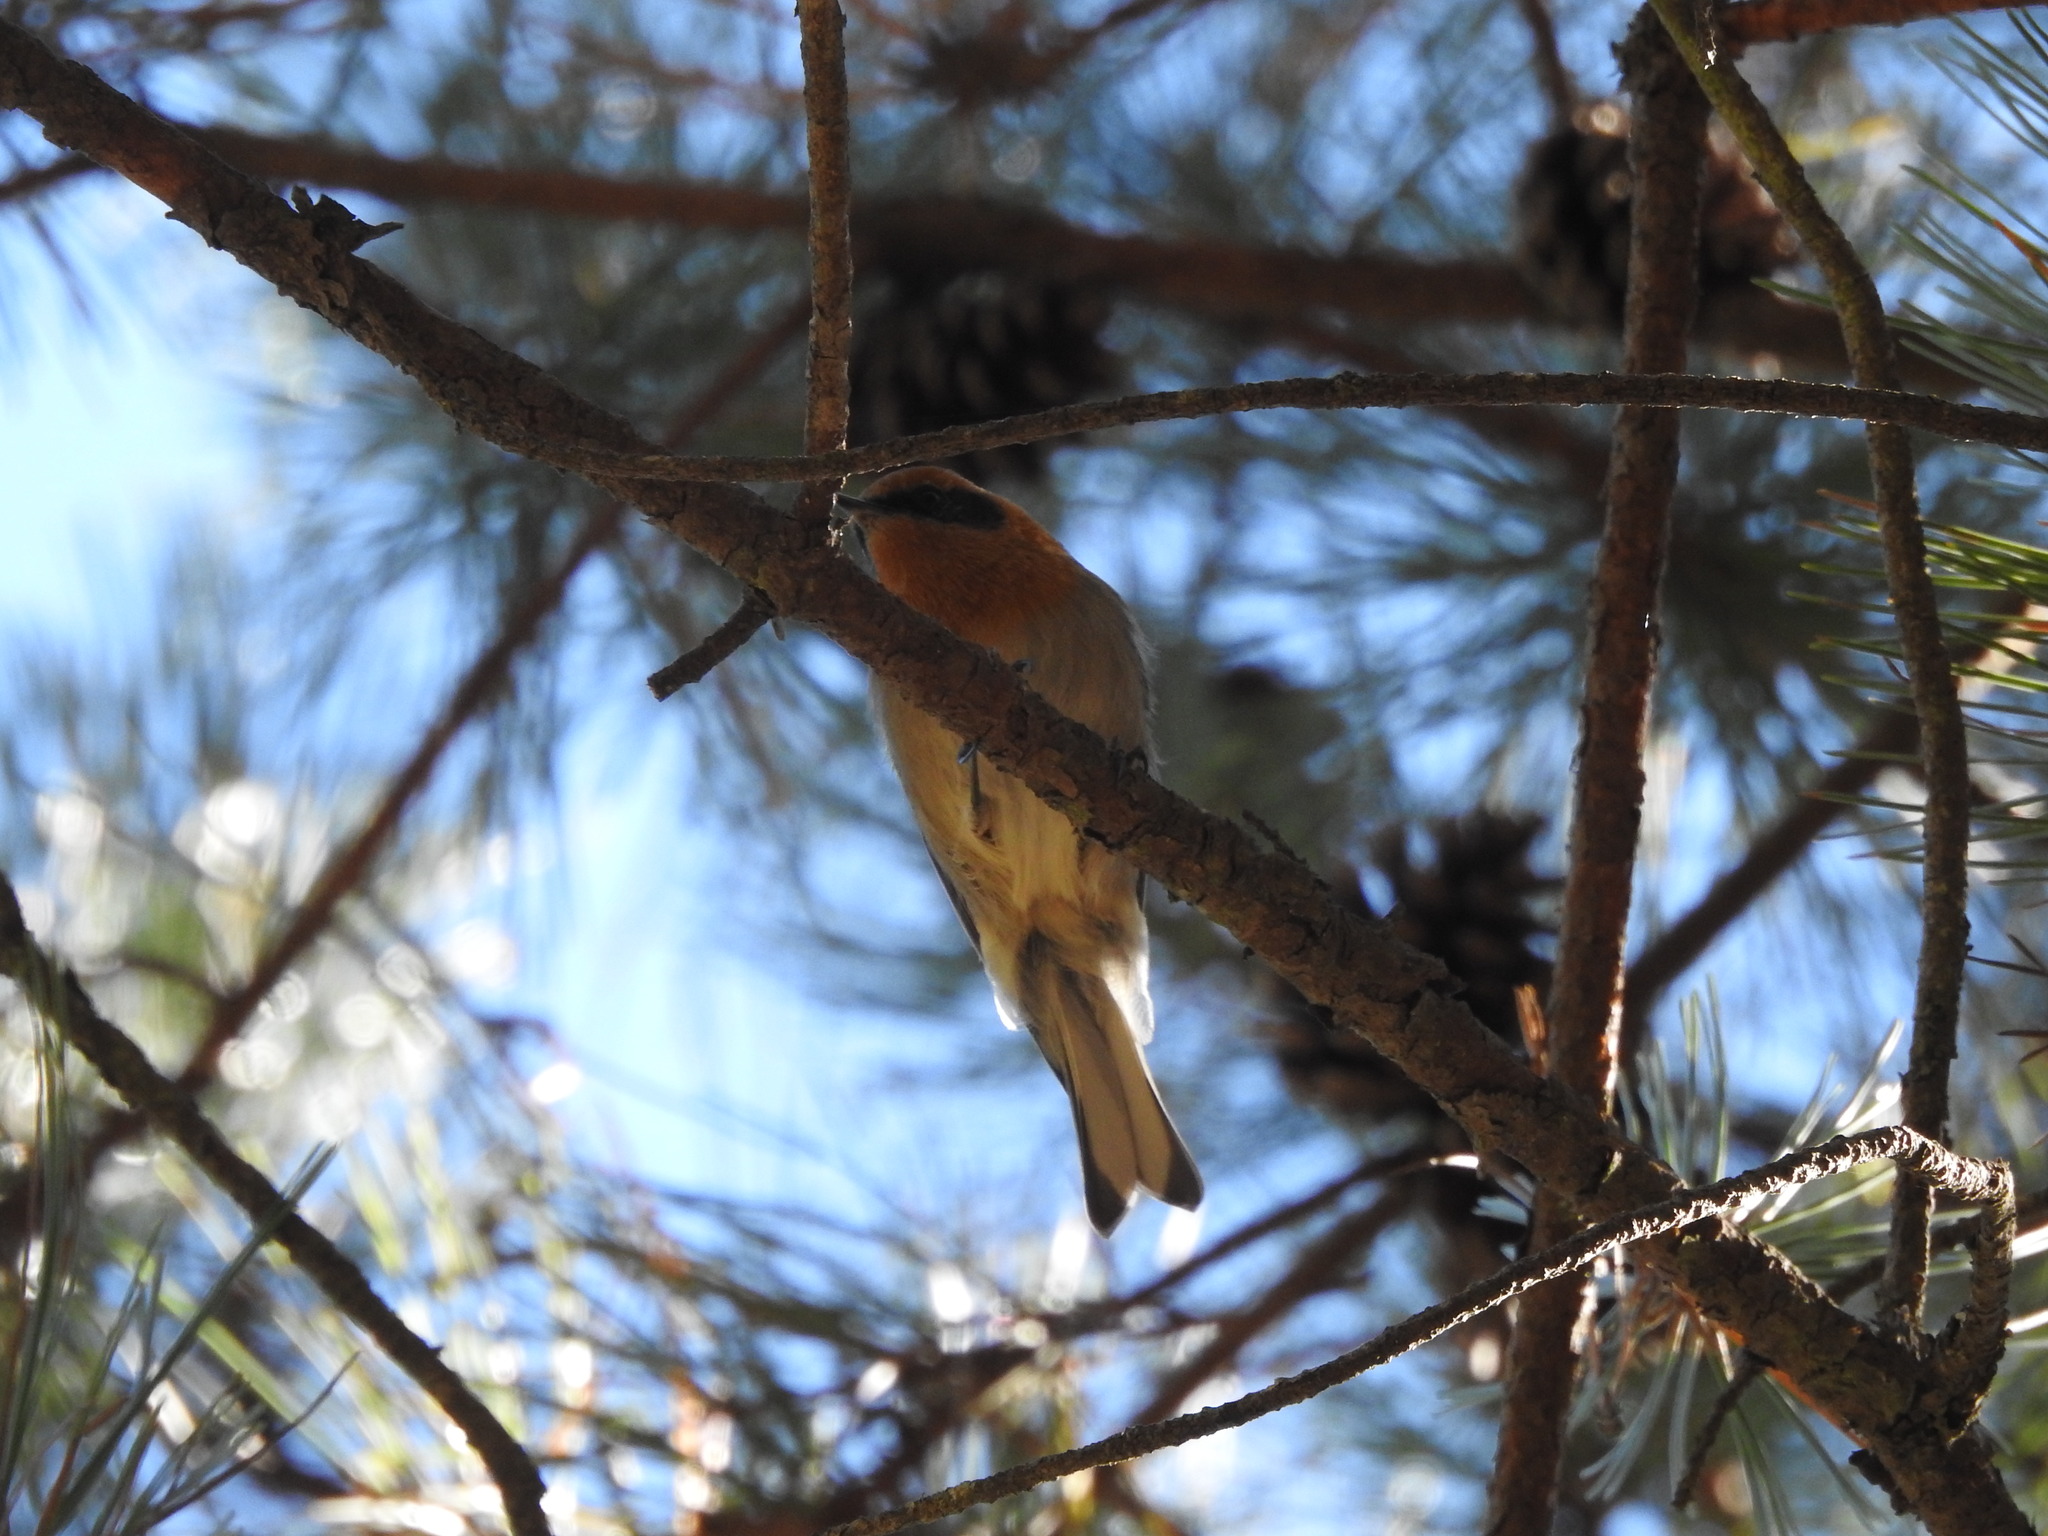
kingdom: Animalia
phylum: Chordata
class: Aves
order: Passeriformes
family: Peucedramidae
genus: Peucedramus
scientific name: Peucedramus taeniatus
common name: Olive warbler
